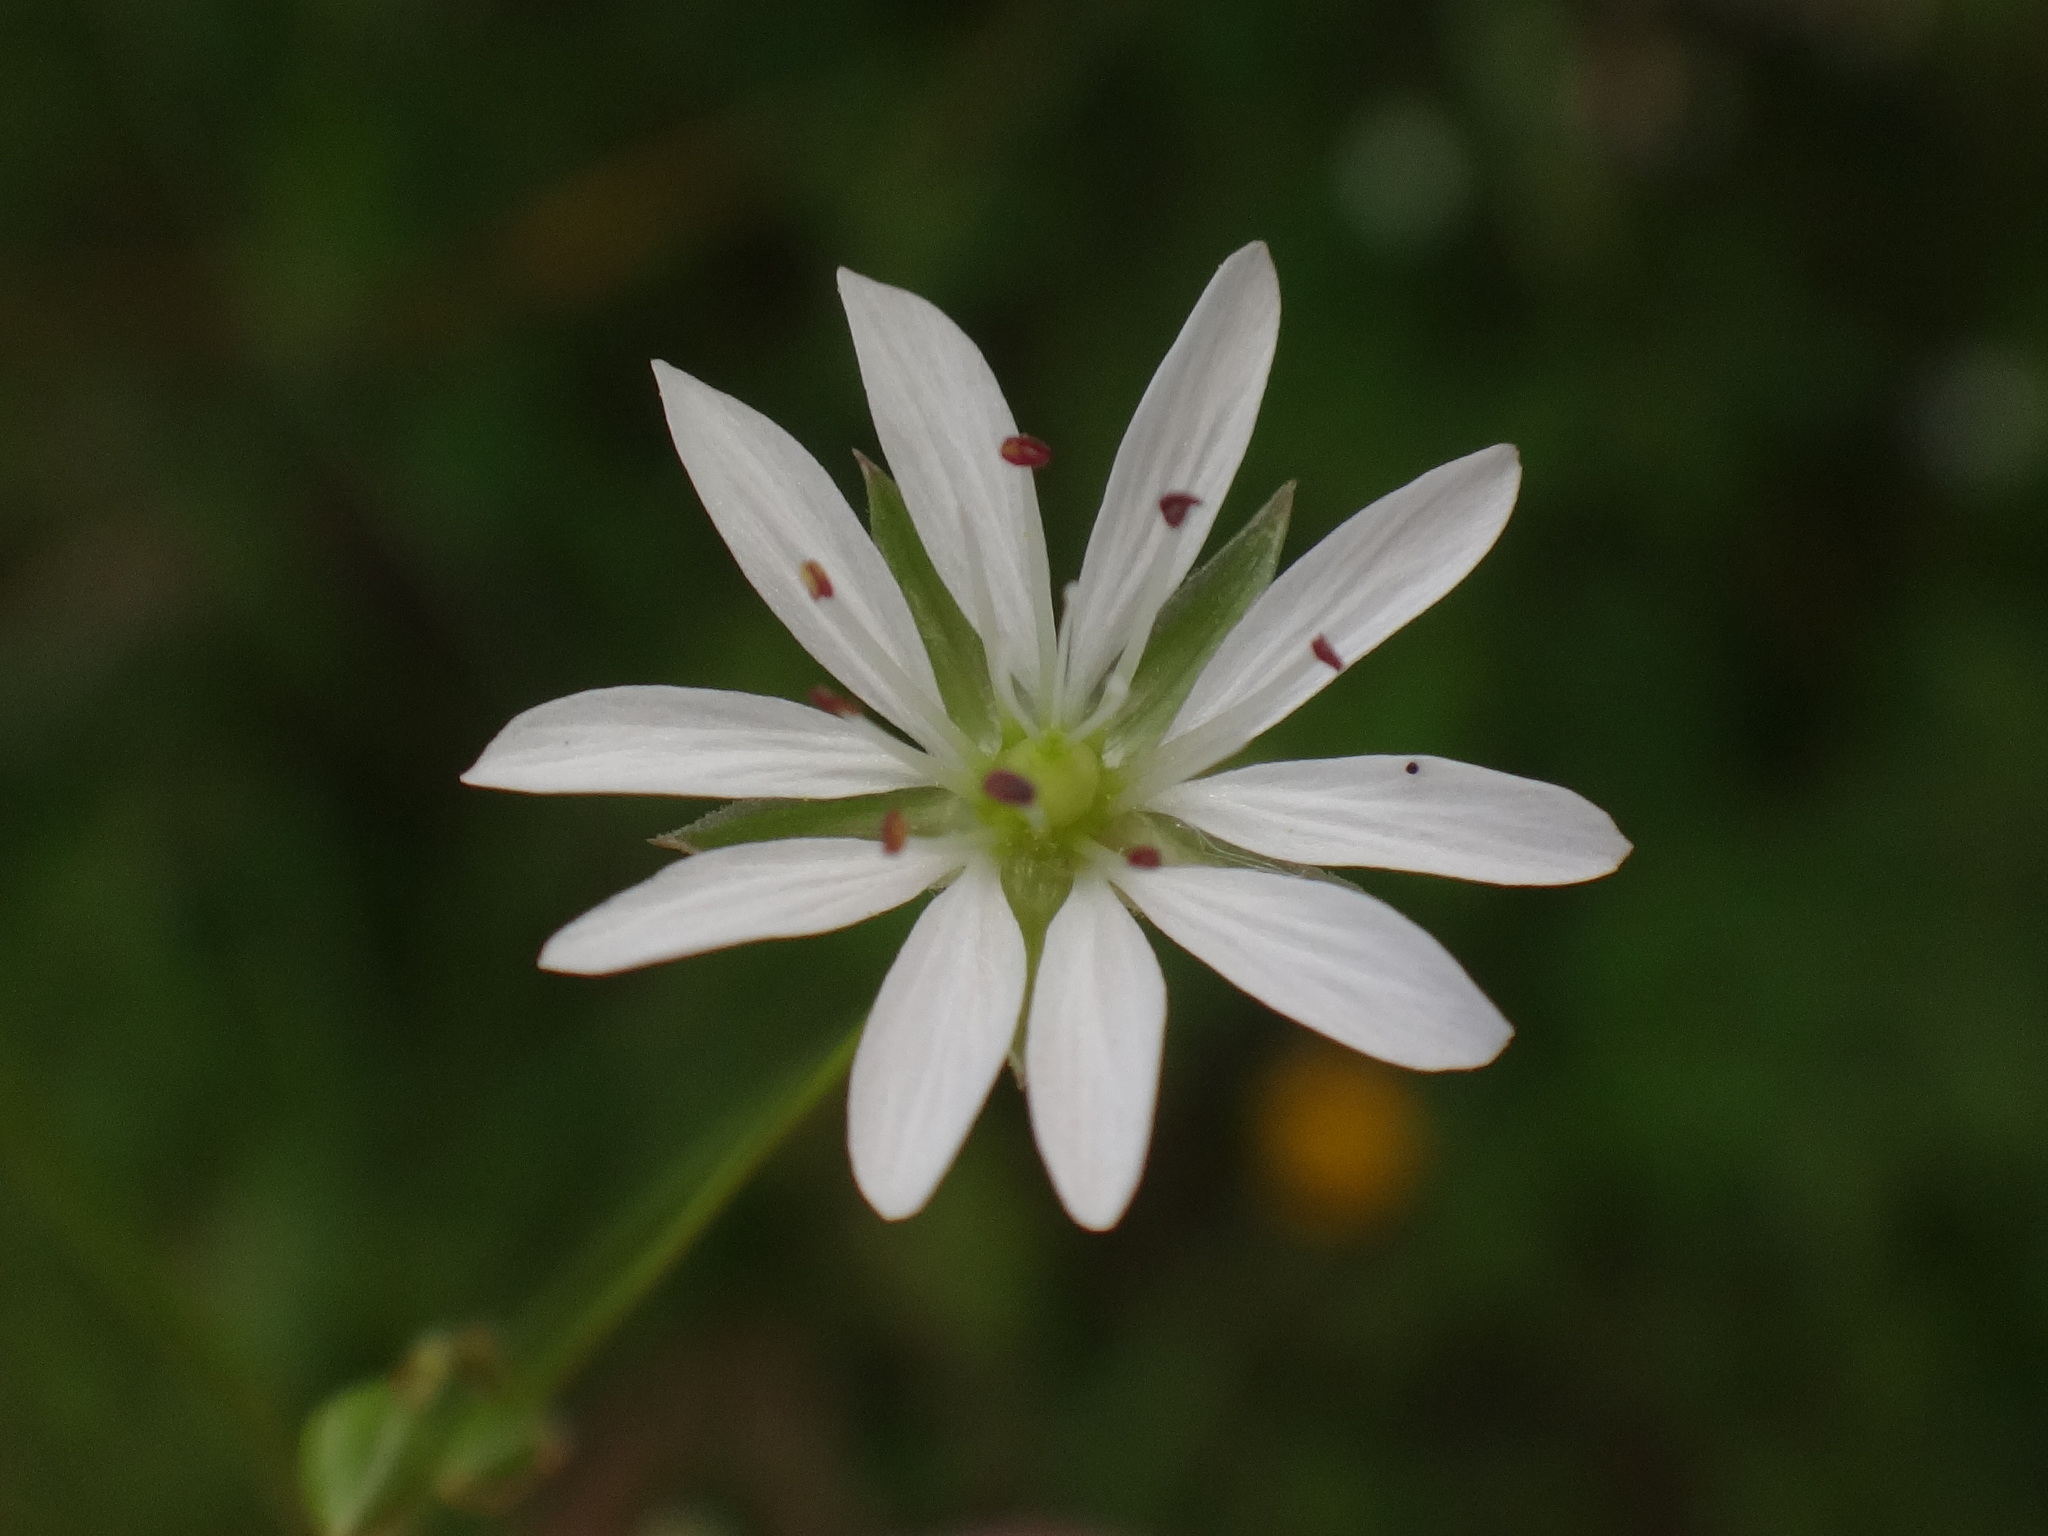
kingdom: Plantae
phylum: Tracheophyta
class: Magnoliopsida
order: Caryophyllales
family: Caryophyllaceae
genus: Stellaria
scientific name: Stellaria graminea
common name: Grass-like starwort
